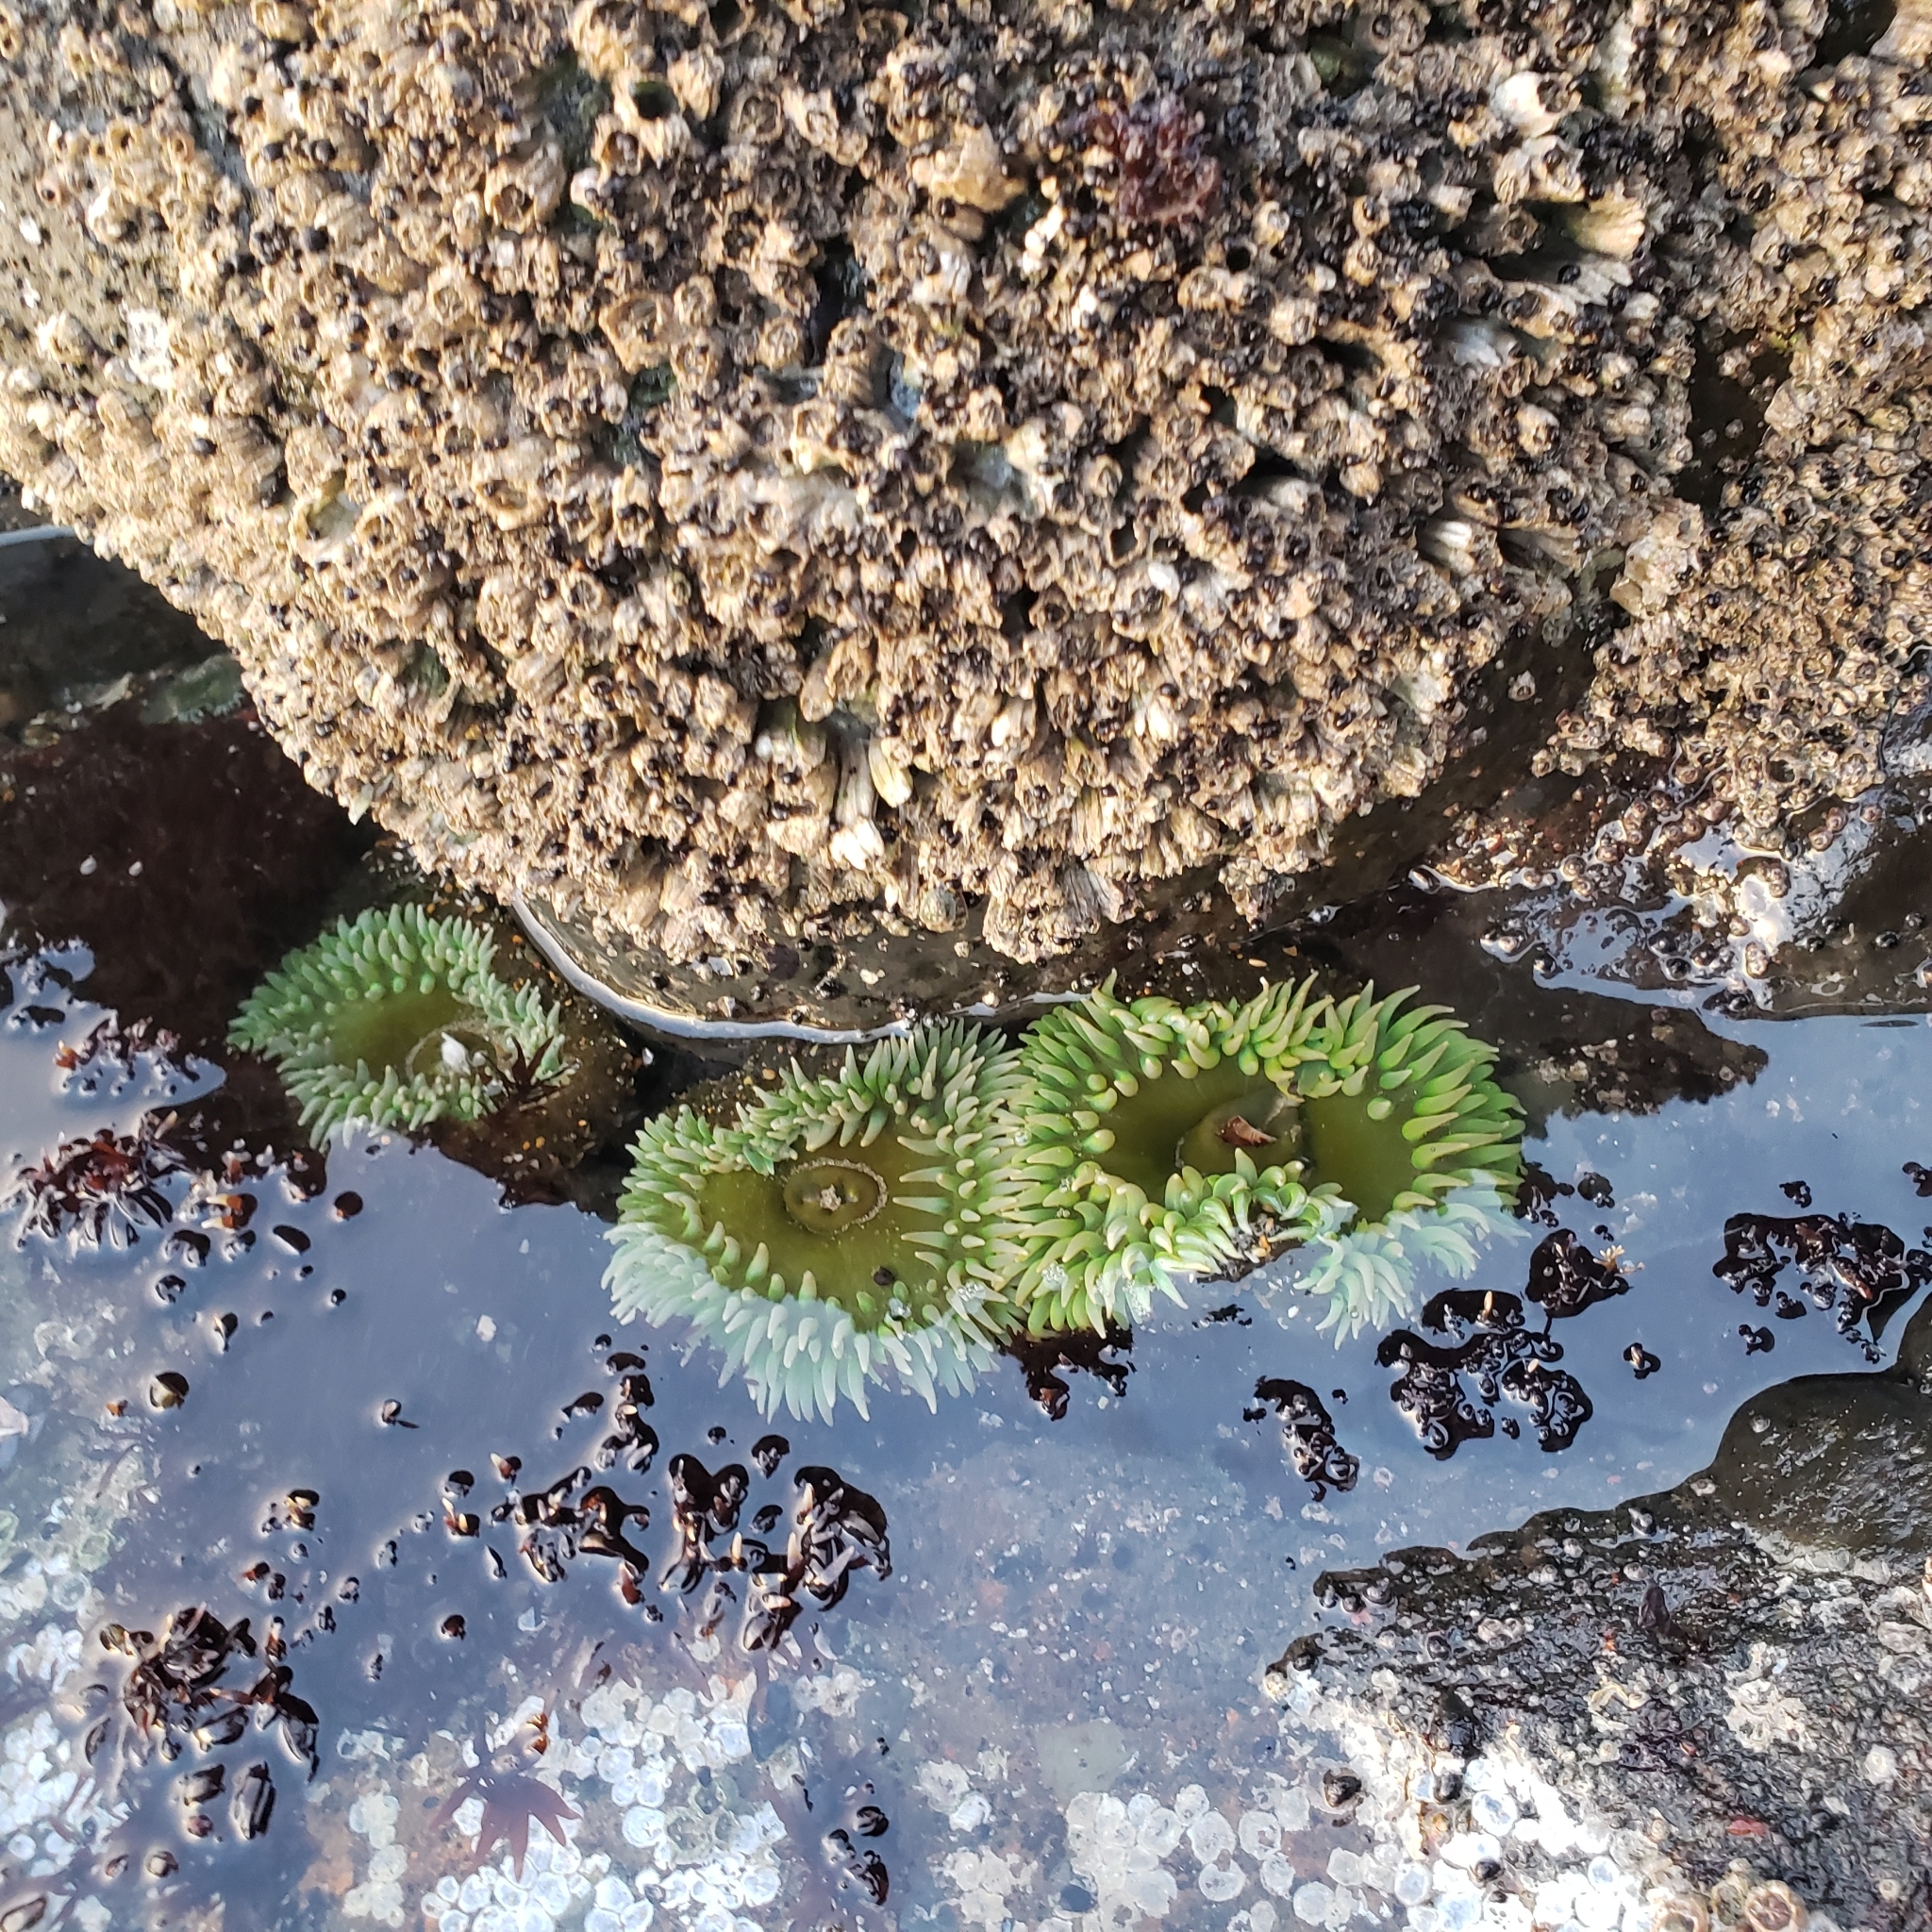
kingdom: Animalia
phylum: Cnidaria
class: Anthozoa
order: Actiniaria
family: Actiniidae
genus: Anthopleura
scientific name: Anthopleura xanthogrammica
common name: Giant green anemone
